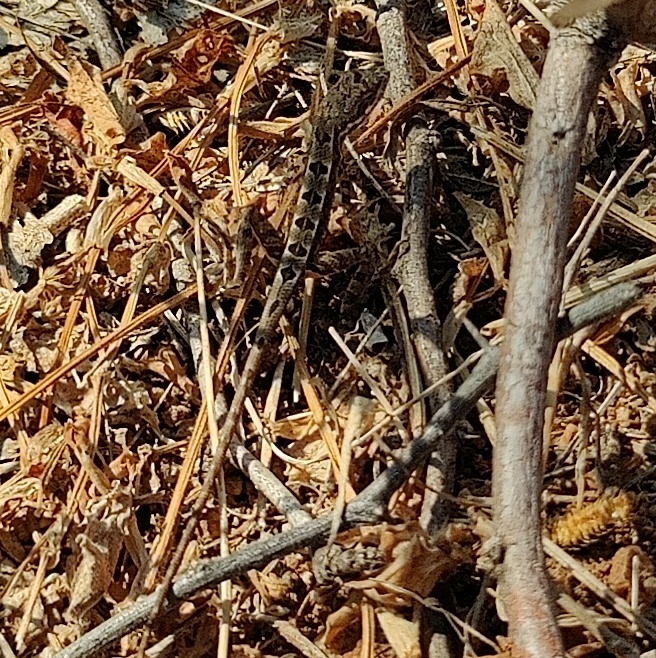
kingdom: Animalia
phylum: Chordata
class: Squamata
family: Agamidae
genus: Sitana
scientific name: Sitana visiri
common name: Palm leaf fan-throated lizard
